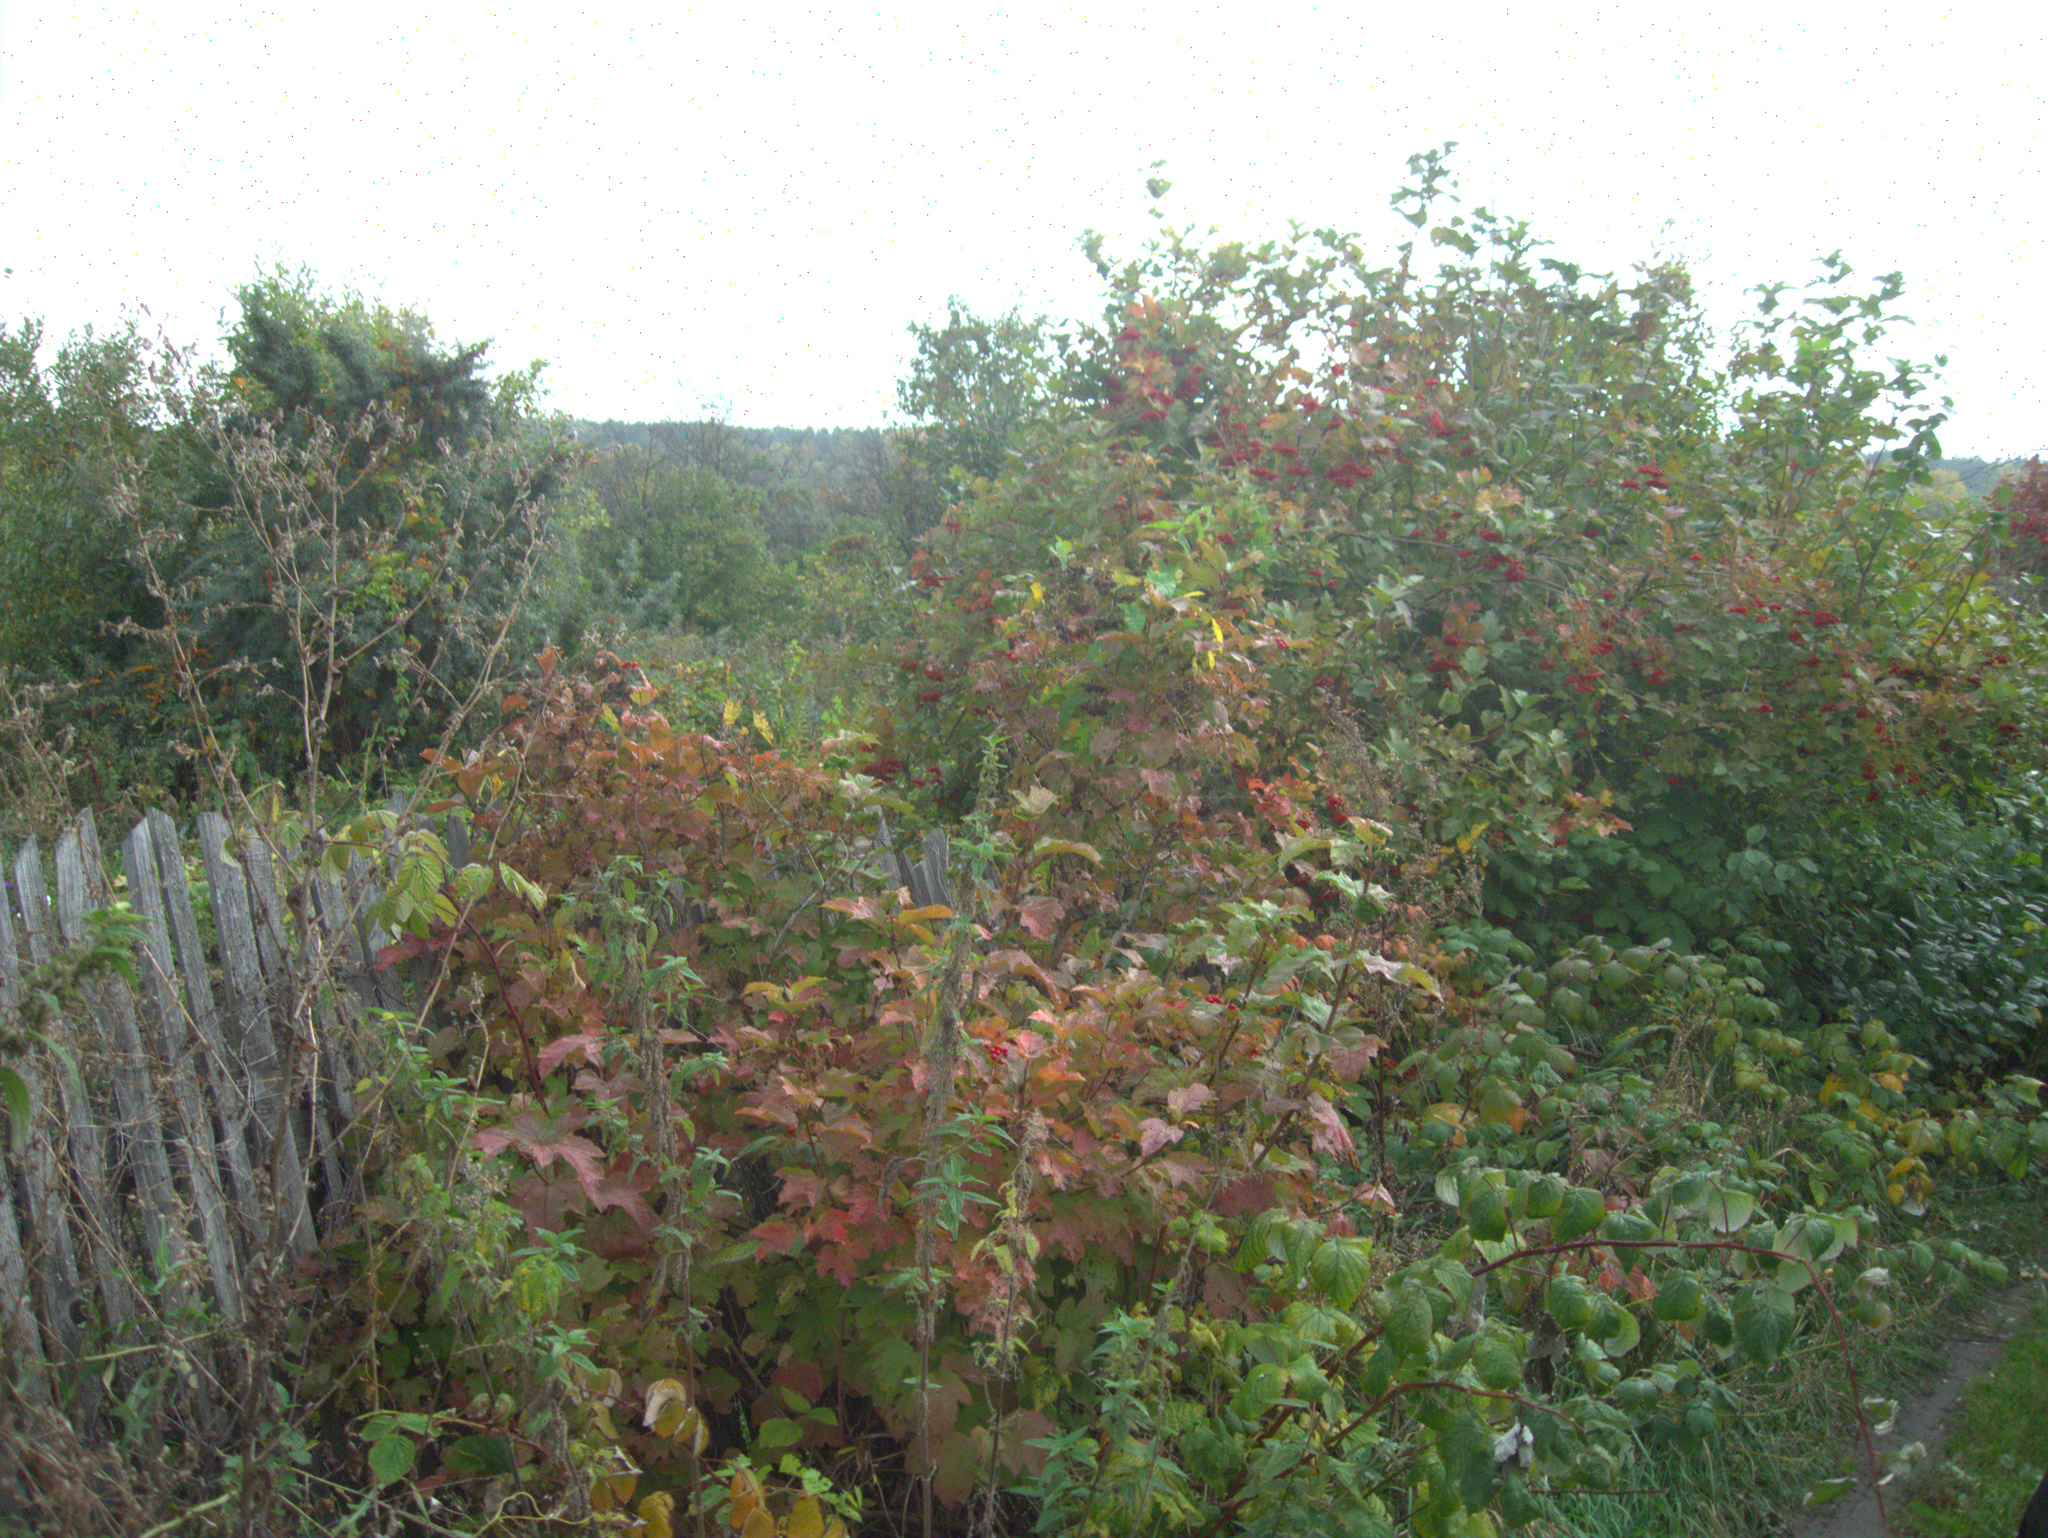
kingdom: Plantae
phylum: Tracheophyta
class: Magnoliopsida
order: Asterales
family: Asteraceae
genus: Lactuca
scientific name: Lactuca serriola
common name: Prickly lettuce
